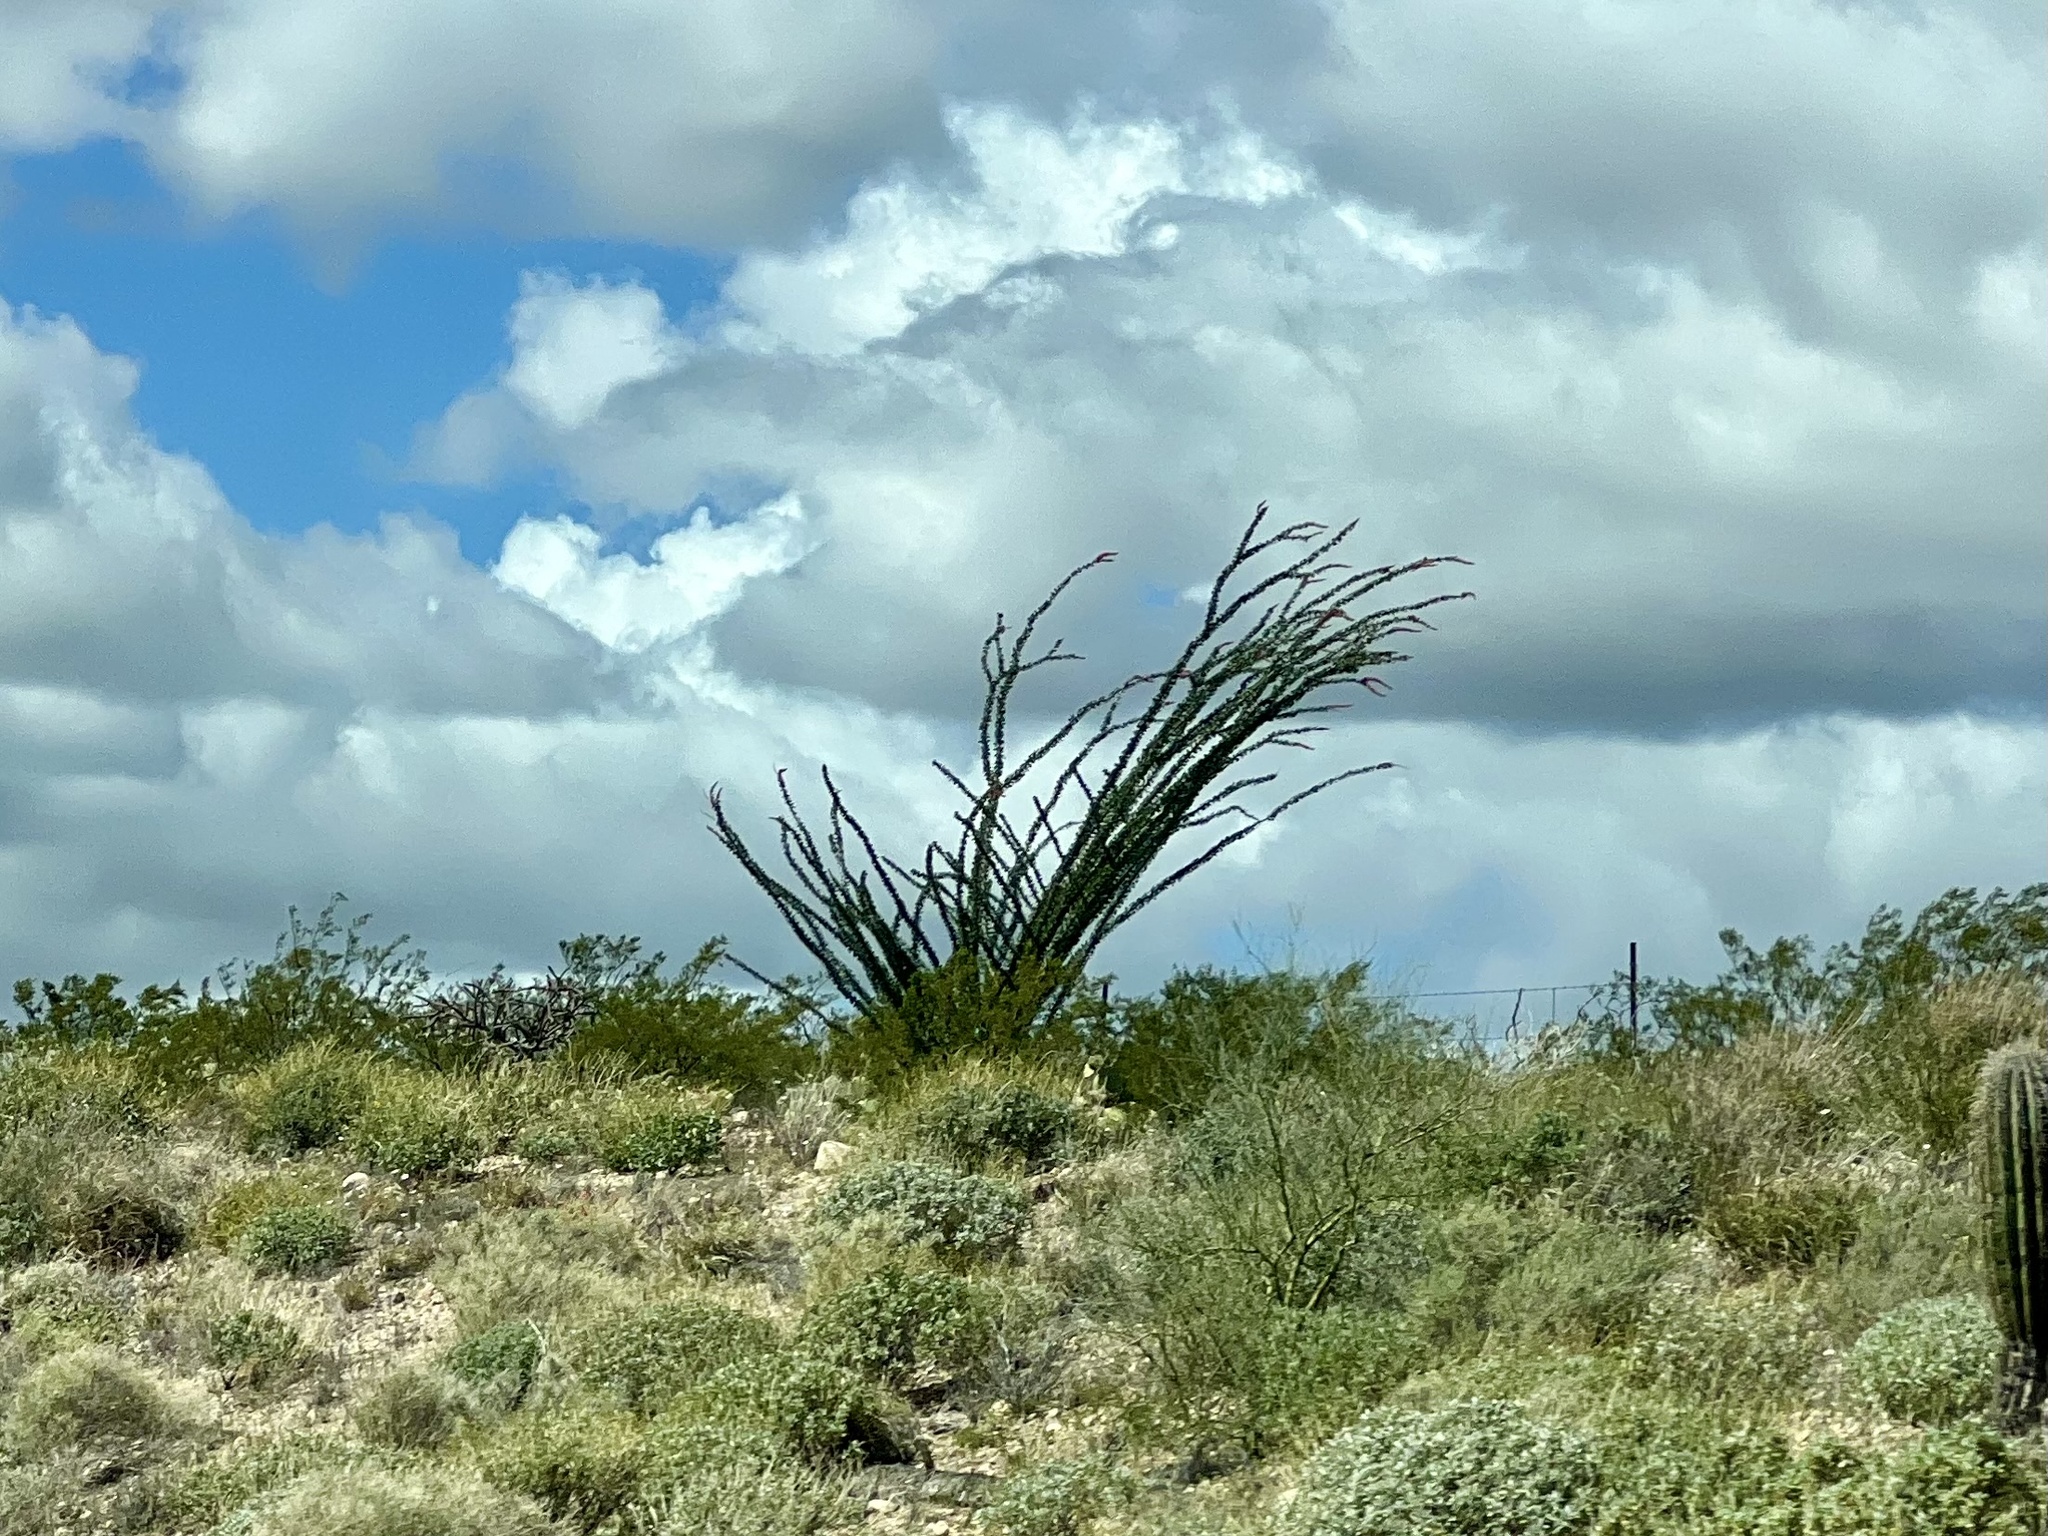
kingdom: Plantae
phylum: Tracheophyta
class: Magnoliopsida
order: Ericales
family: Fouquieriaceae
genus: Fouquieria
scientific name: Fouquieria splendens
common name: Vine-cactus
